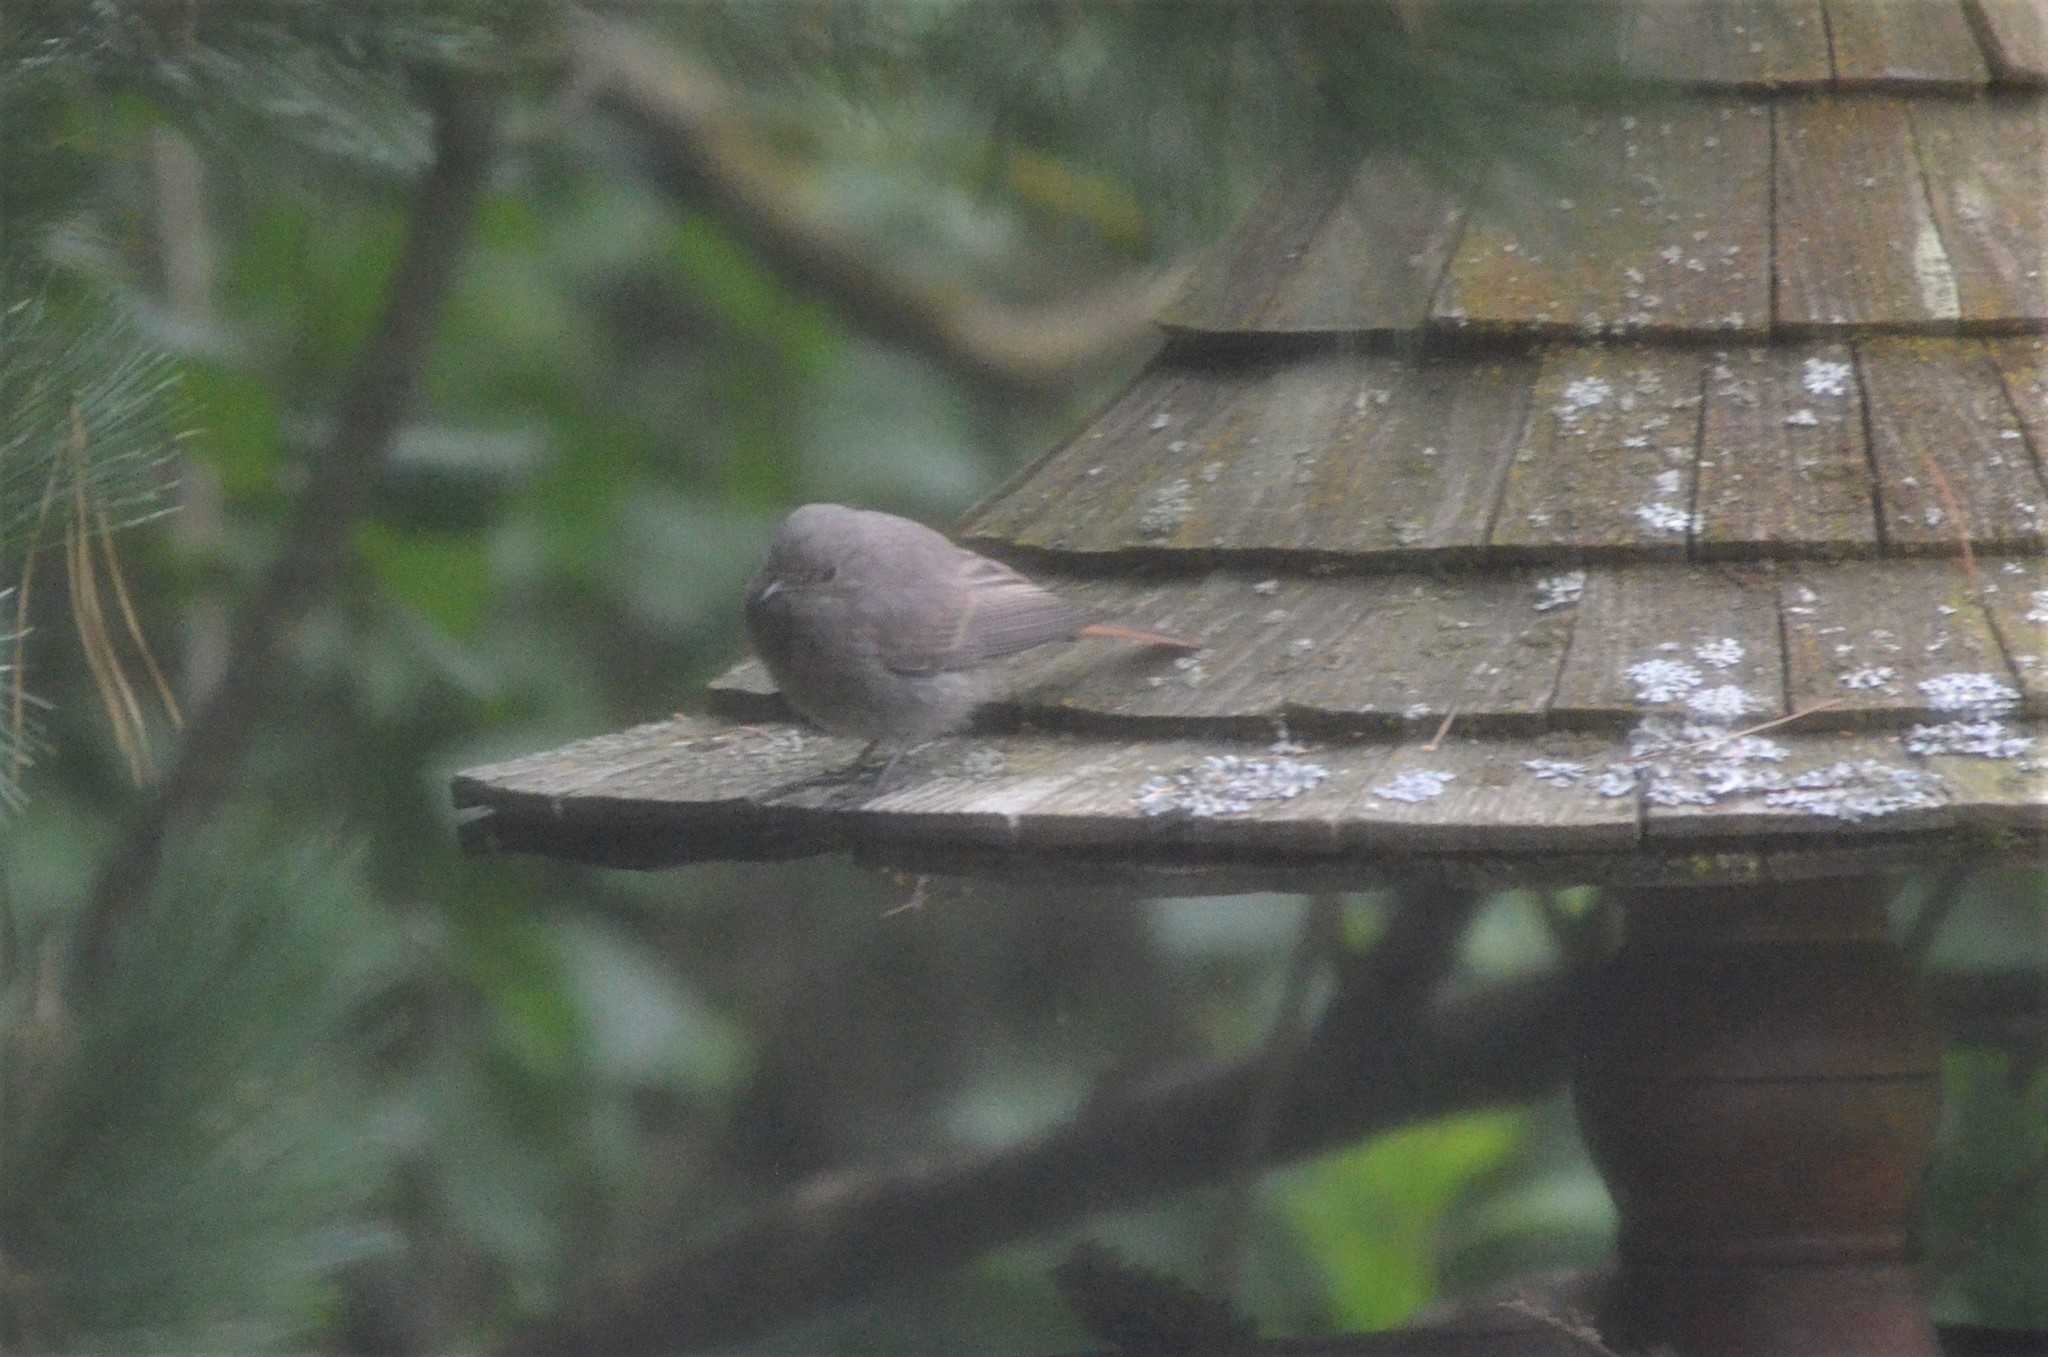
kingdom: Animalia
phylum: Chordata
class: Aves
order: Passeriformes
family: Muscicapidae
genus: Phoenicurus
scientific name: Phoenicurus ochruros
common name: Black redstart
